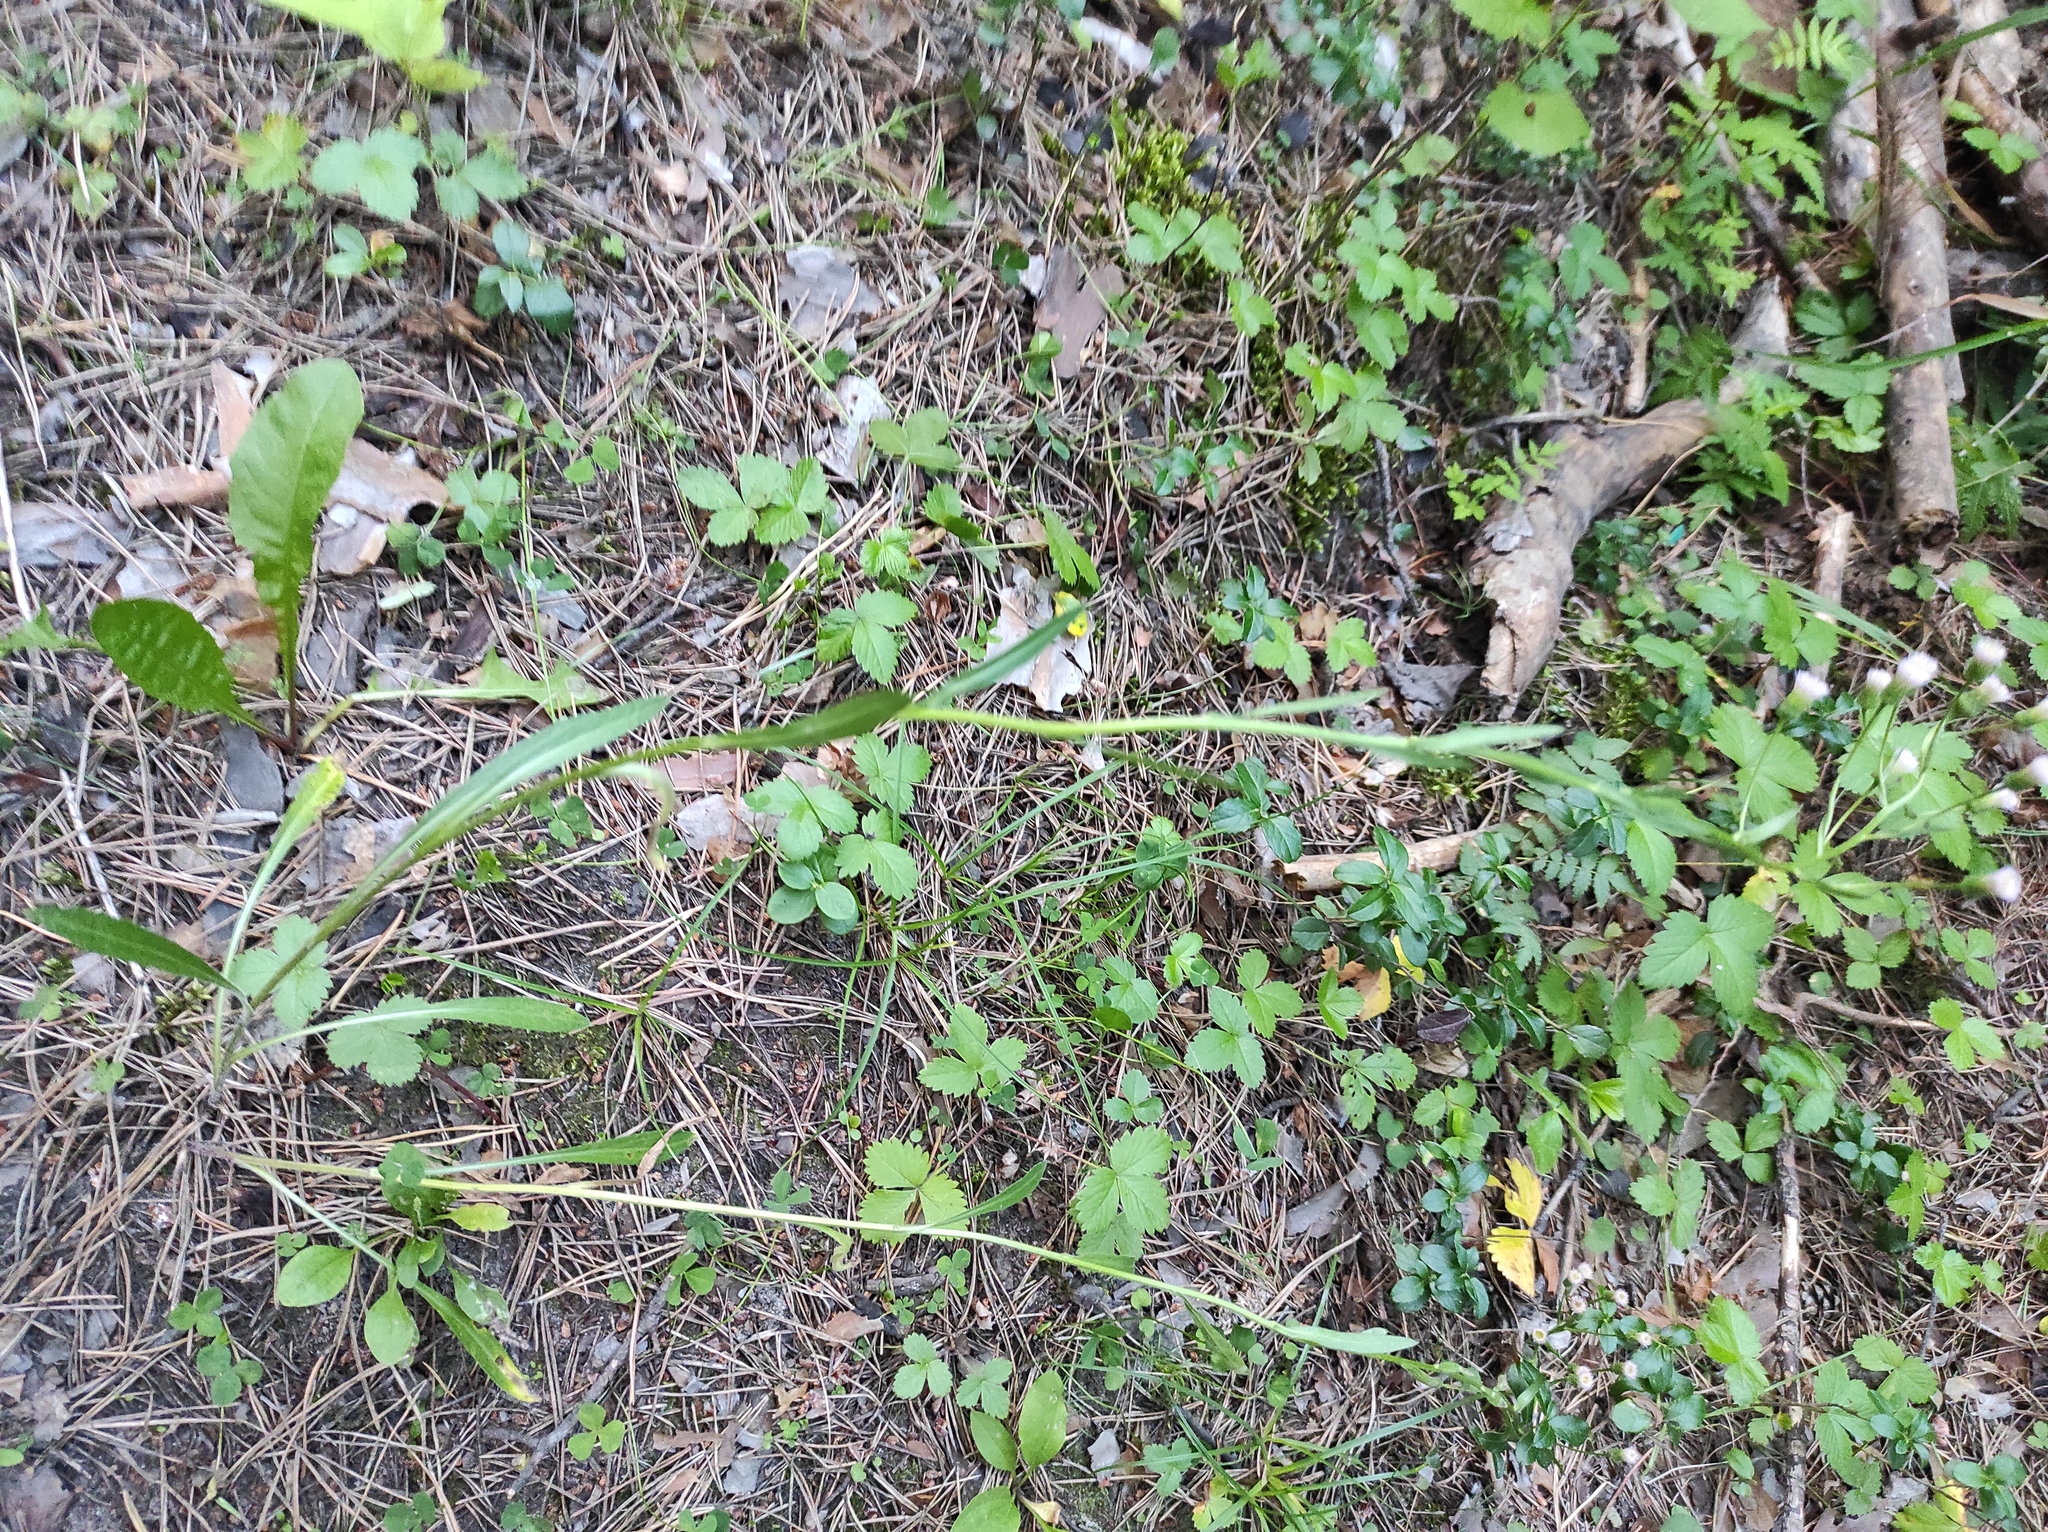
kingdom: Plantae
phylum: Tracheophyta
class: Magnoliopsida
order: Asterales
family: Asteraceae
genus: Erigeron
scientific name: Erigeron acris
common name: Blue fleabane
